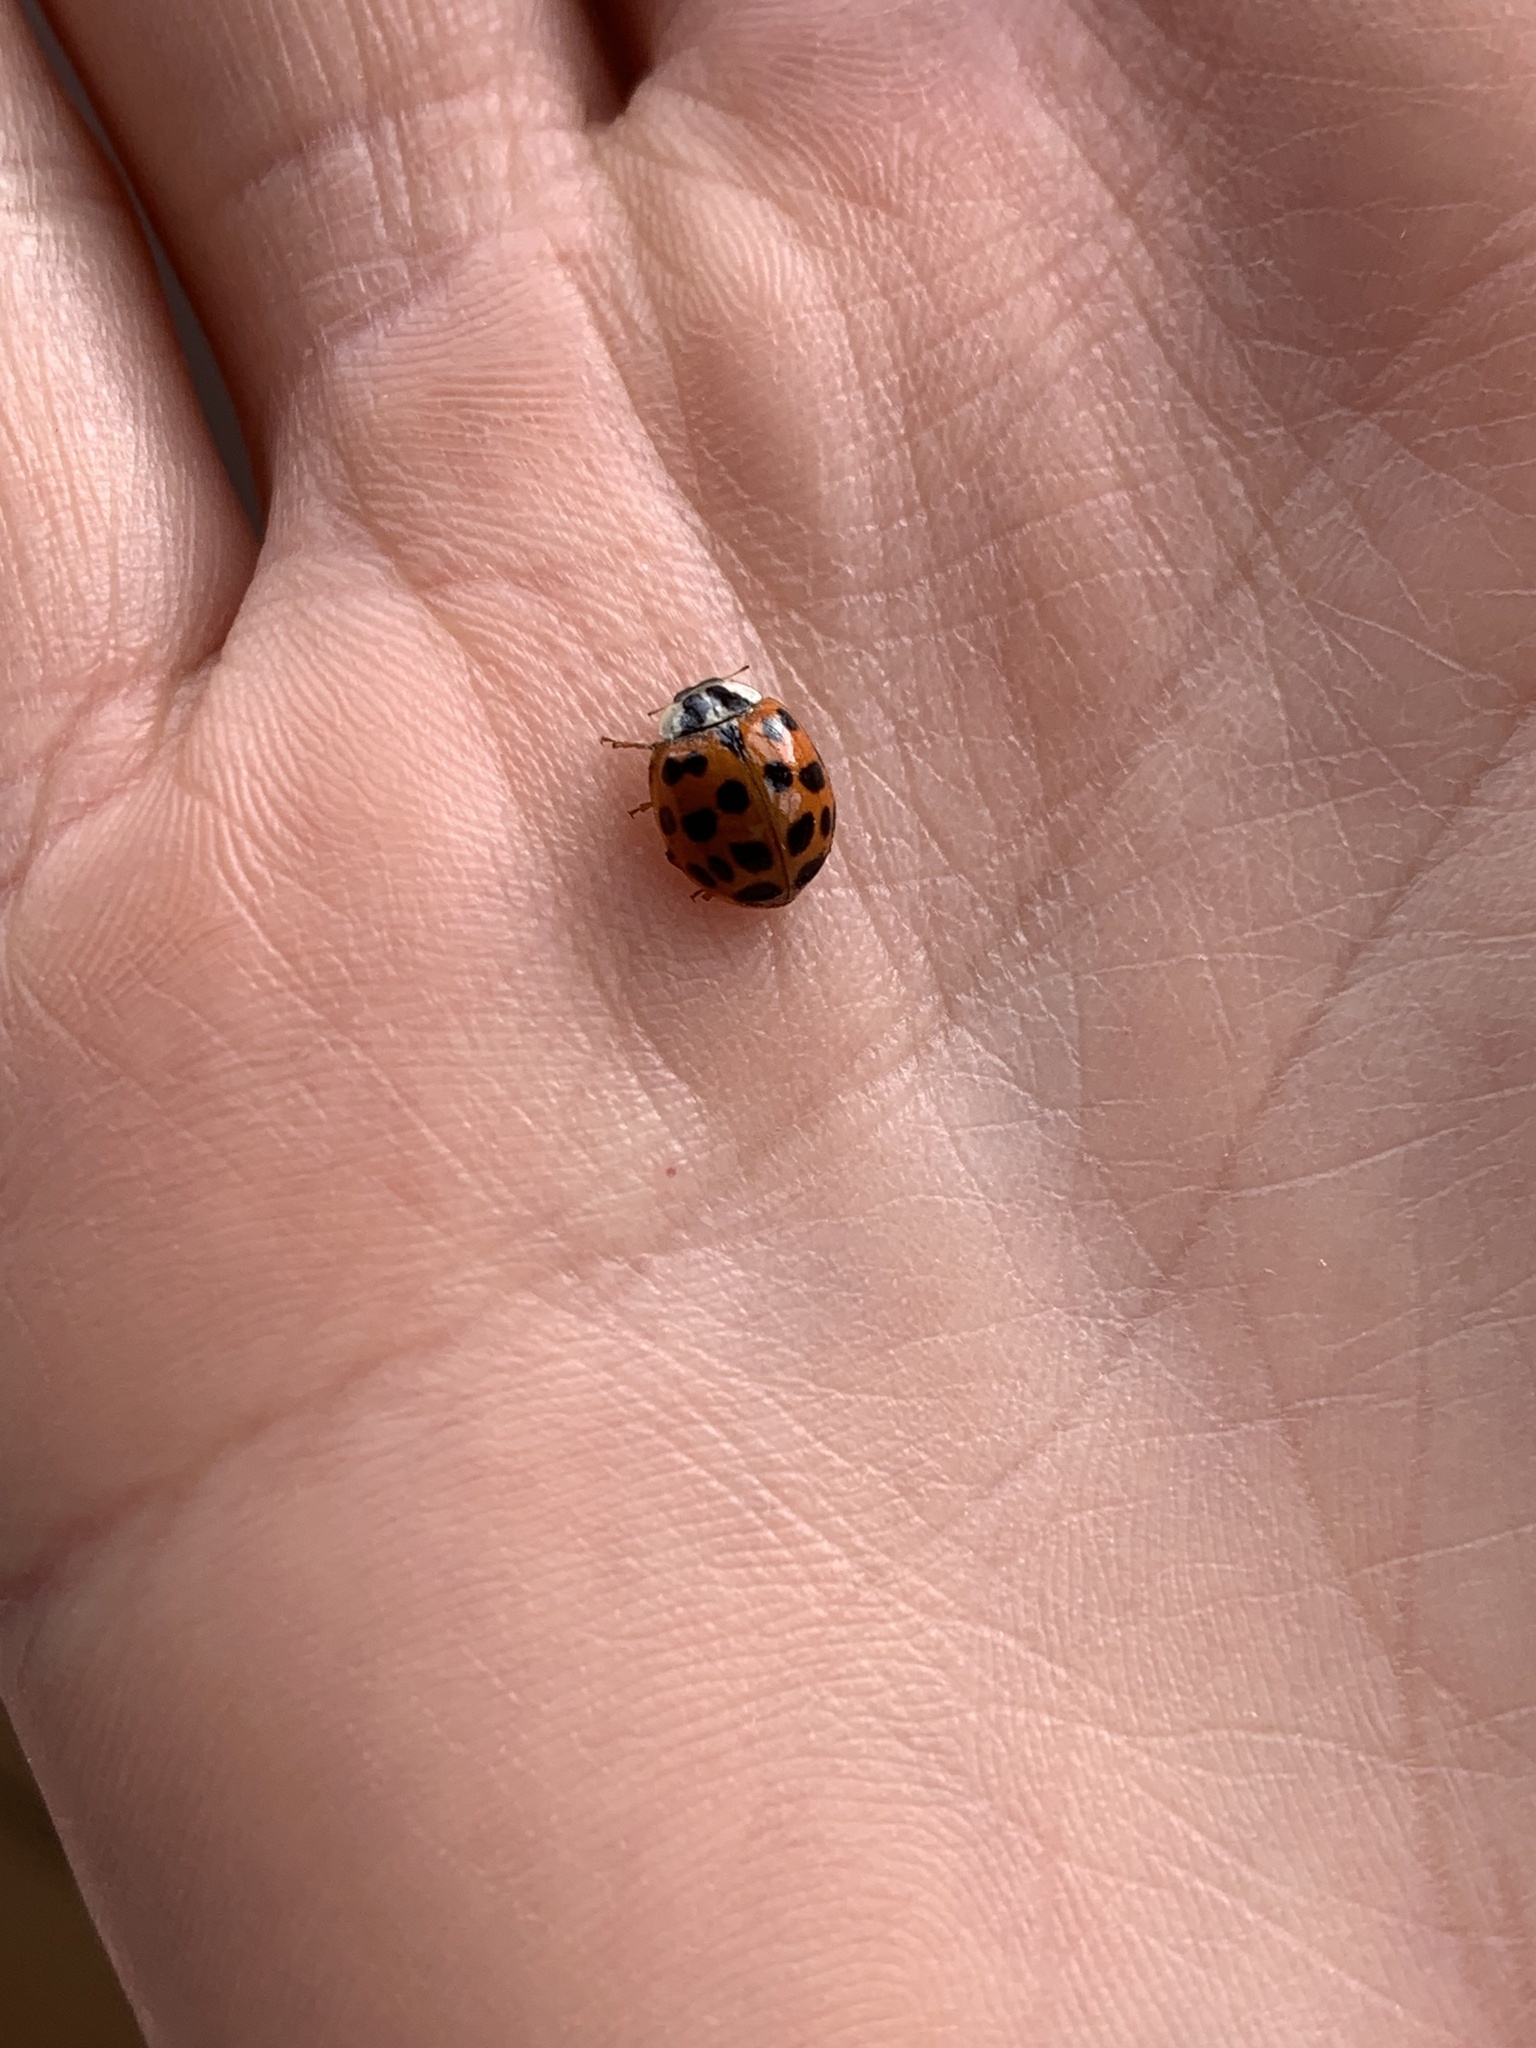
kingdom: Animalia
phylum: Arthropoda
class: Insecta
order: Coleoptera
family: Coccinellidae
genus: Harmonia
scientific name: Harmonia axyridis
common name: Harlequin ladybird
